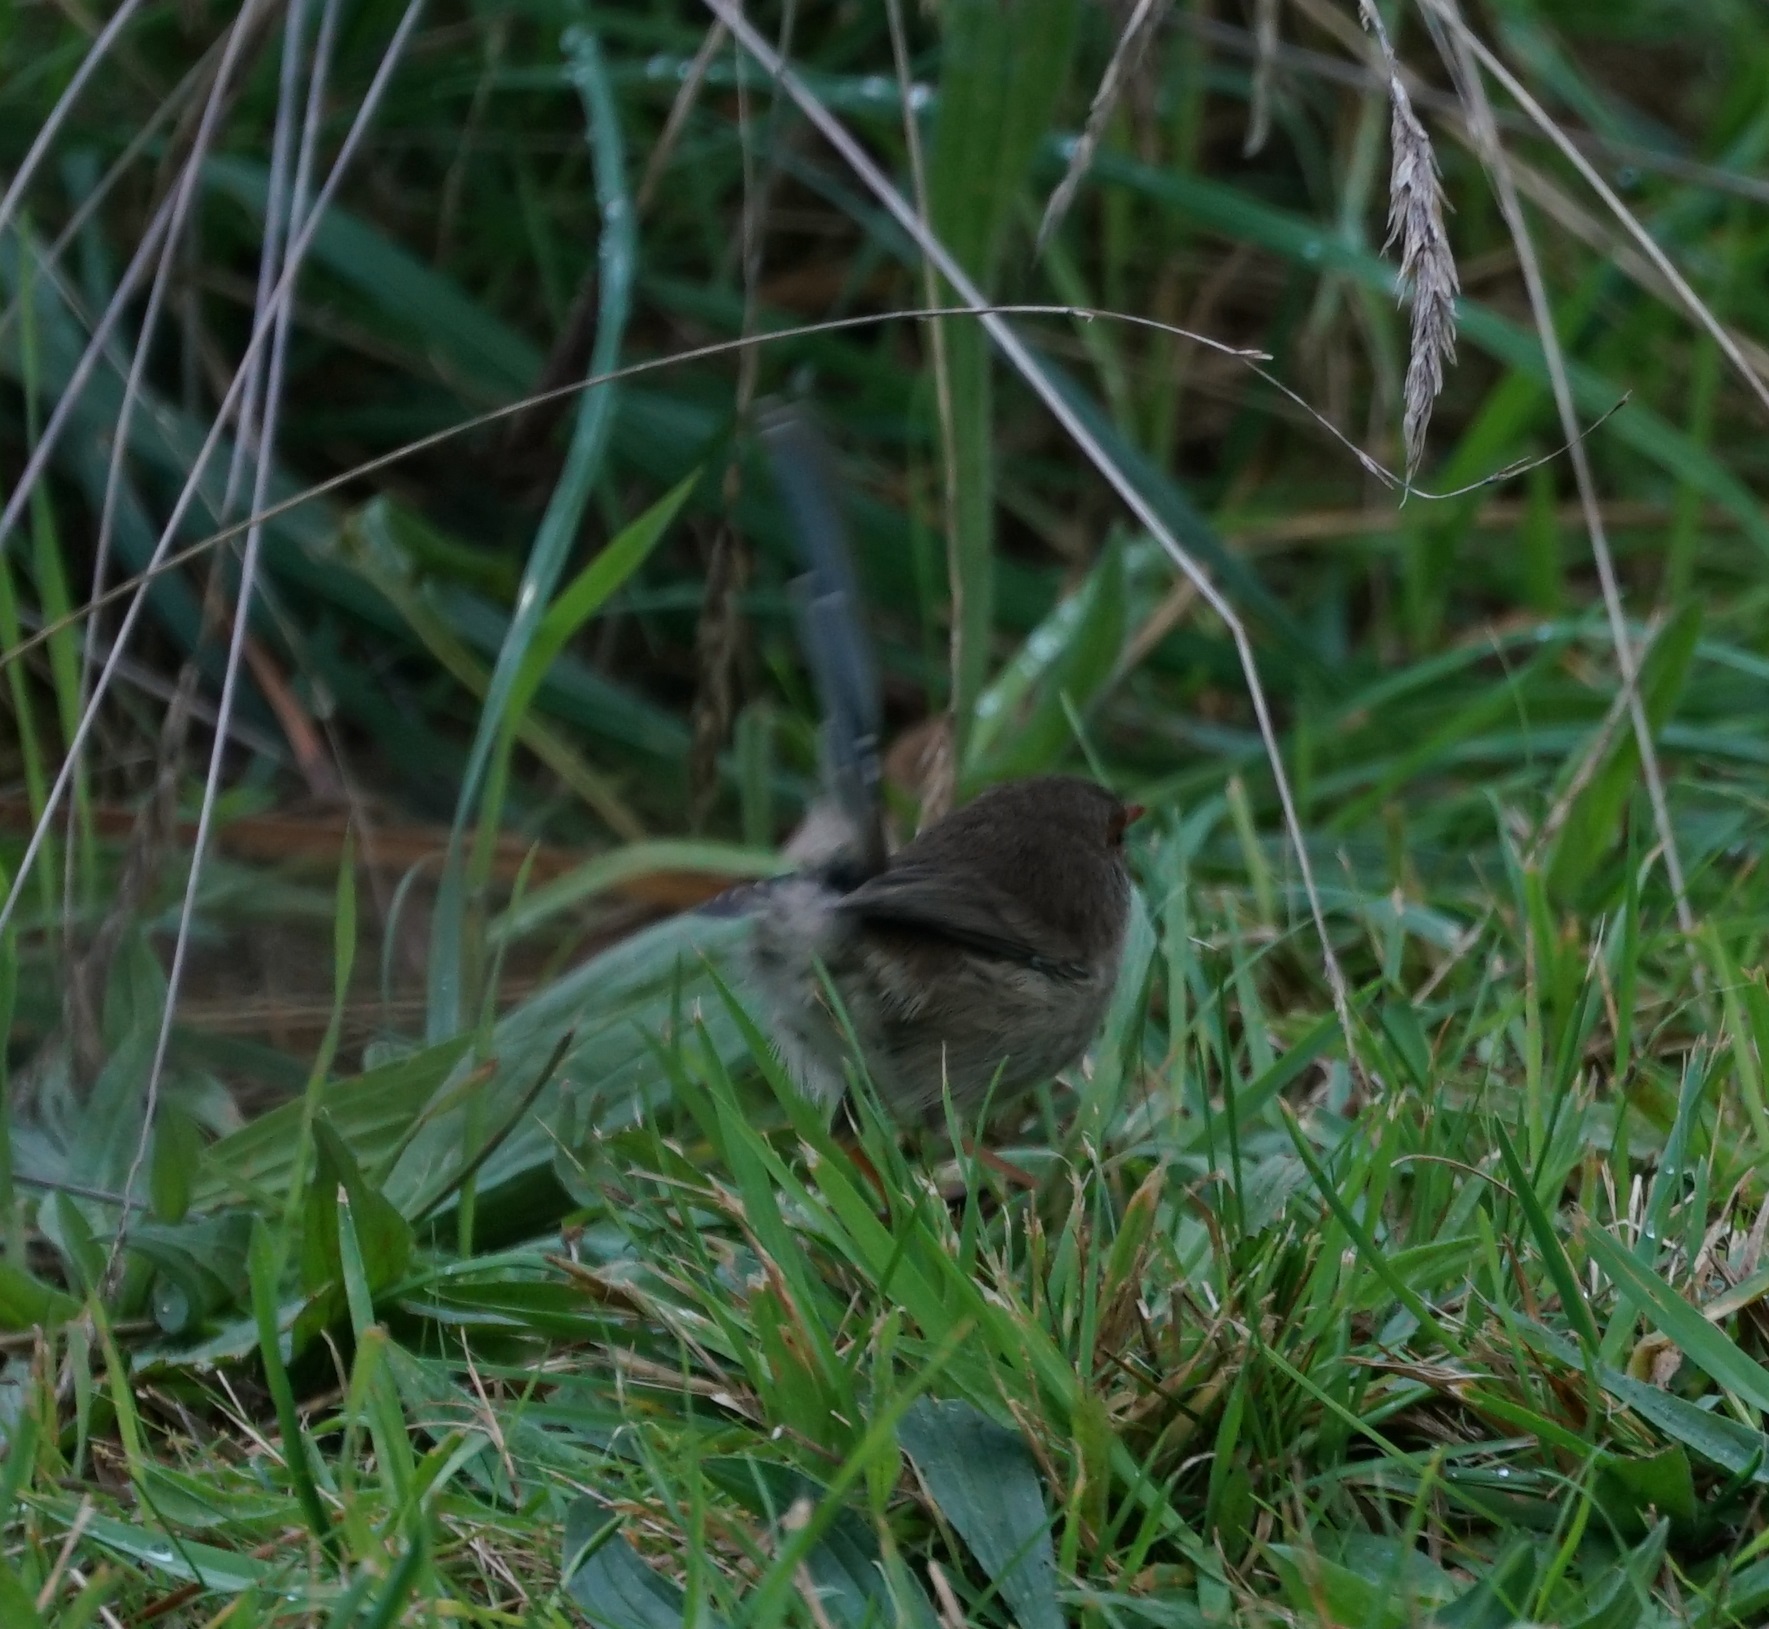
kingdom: Animalia
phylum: Chordata
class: Aves
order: Passeriformes
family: Maluridae
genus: Malurus
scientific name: Malurus cyaneus
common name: Superb fairywren
